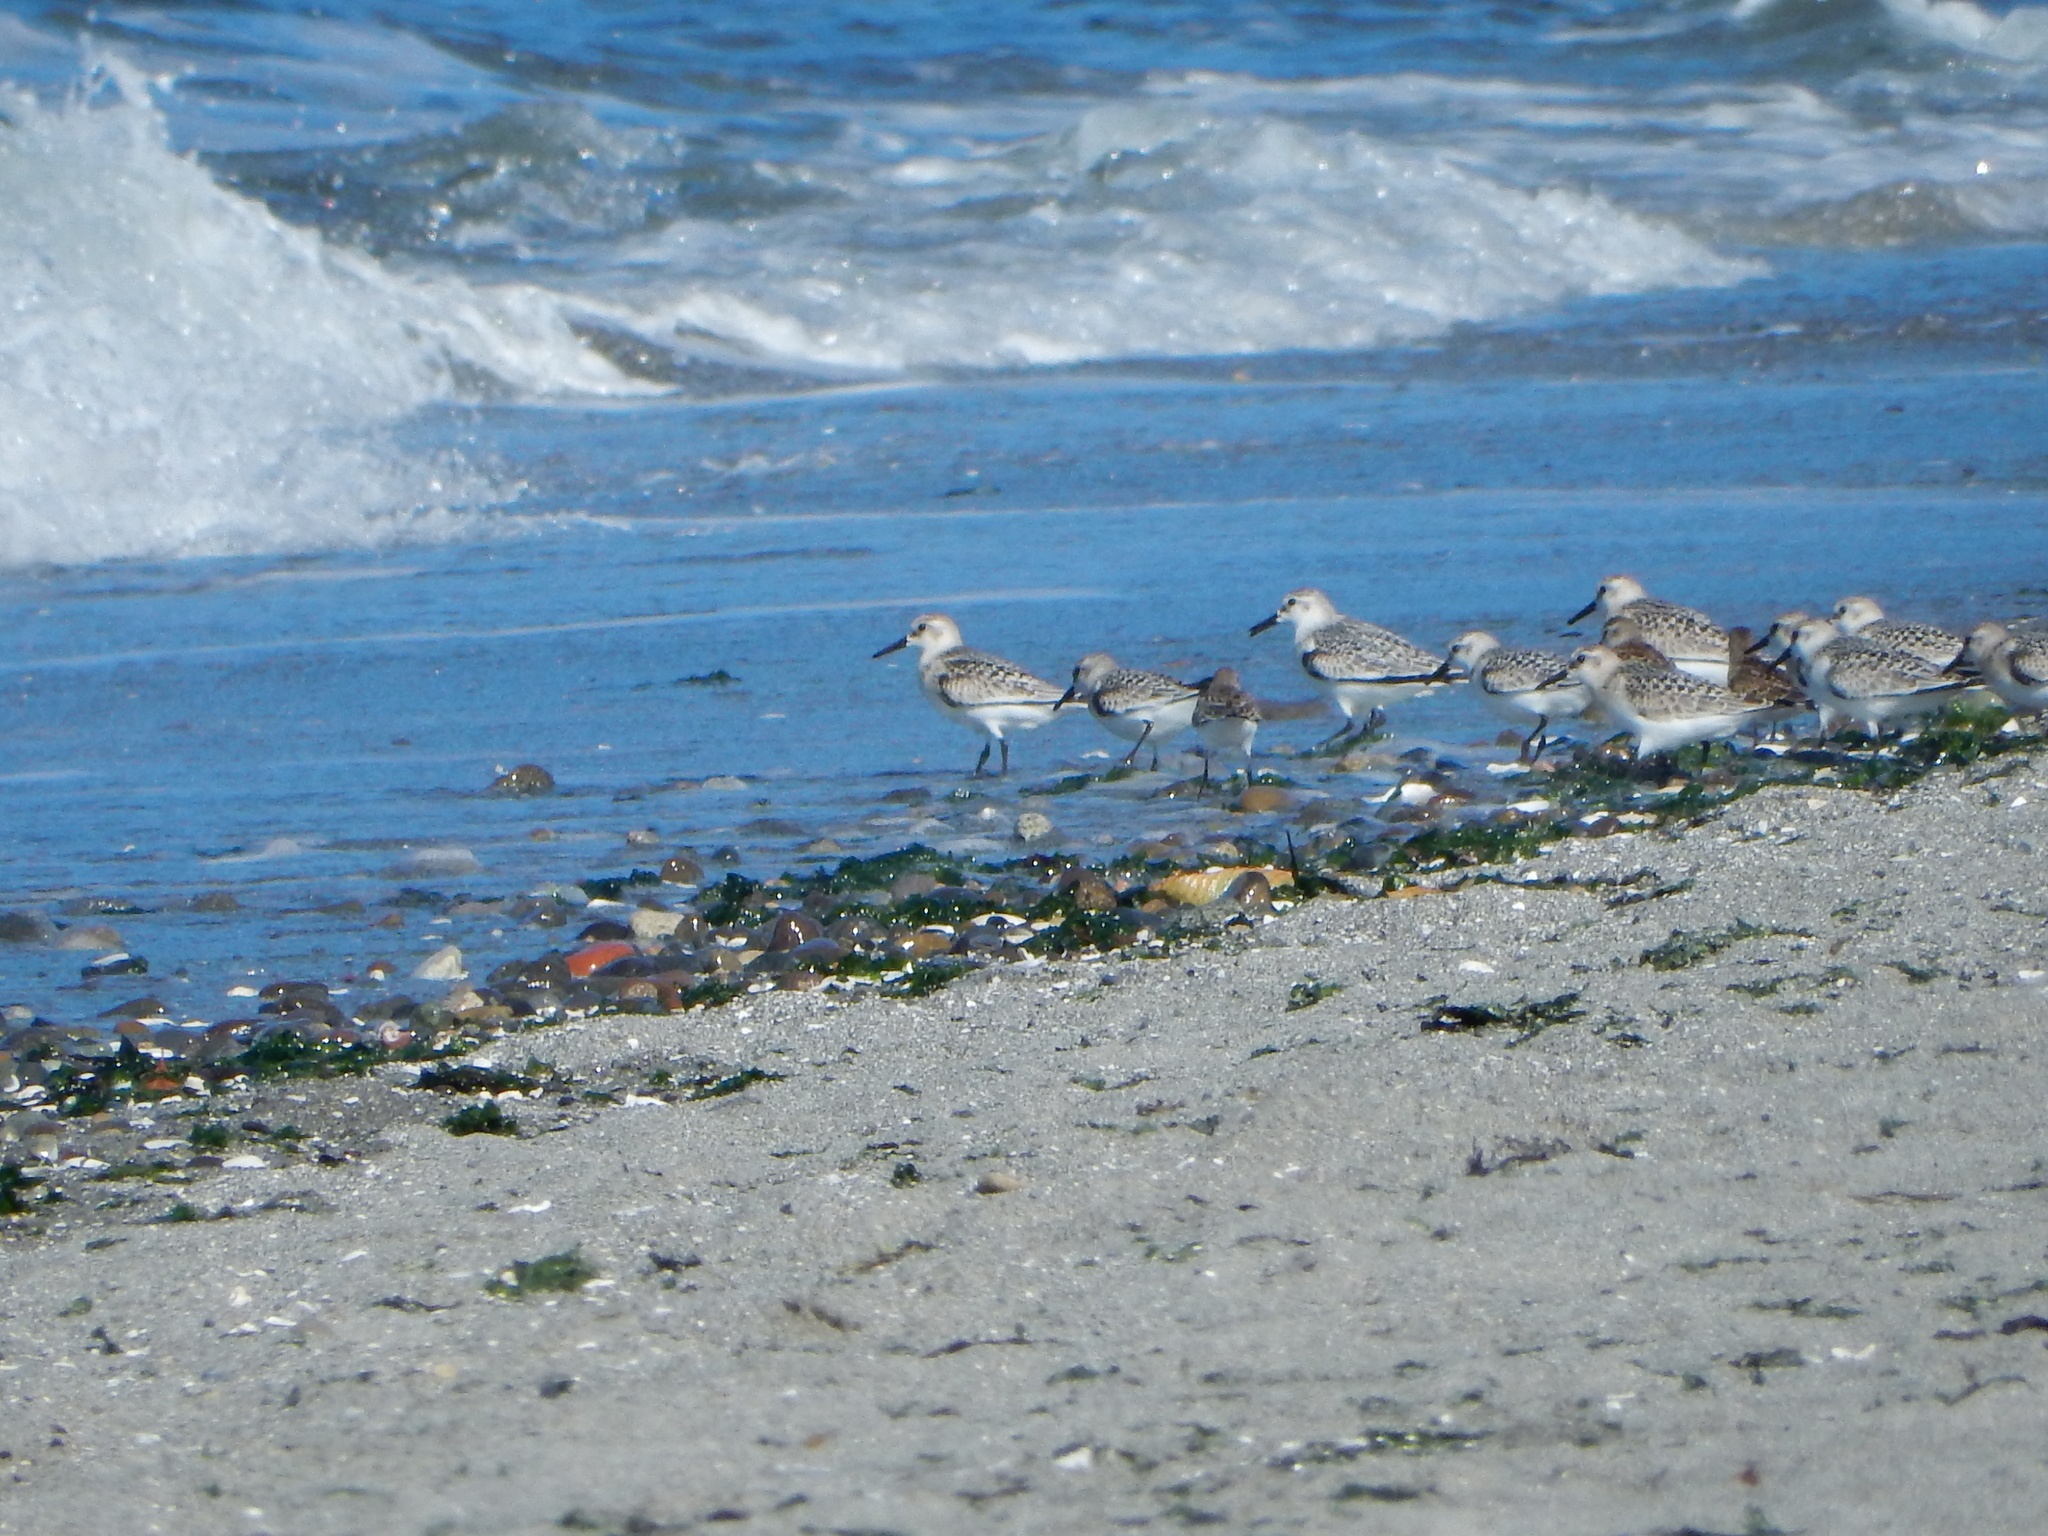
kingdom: Animalia
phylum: Chordata
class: Aves
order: Charadriiformes
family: Scolopacidae
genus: Calidris
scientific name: Calidris alba
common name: Sanderling
